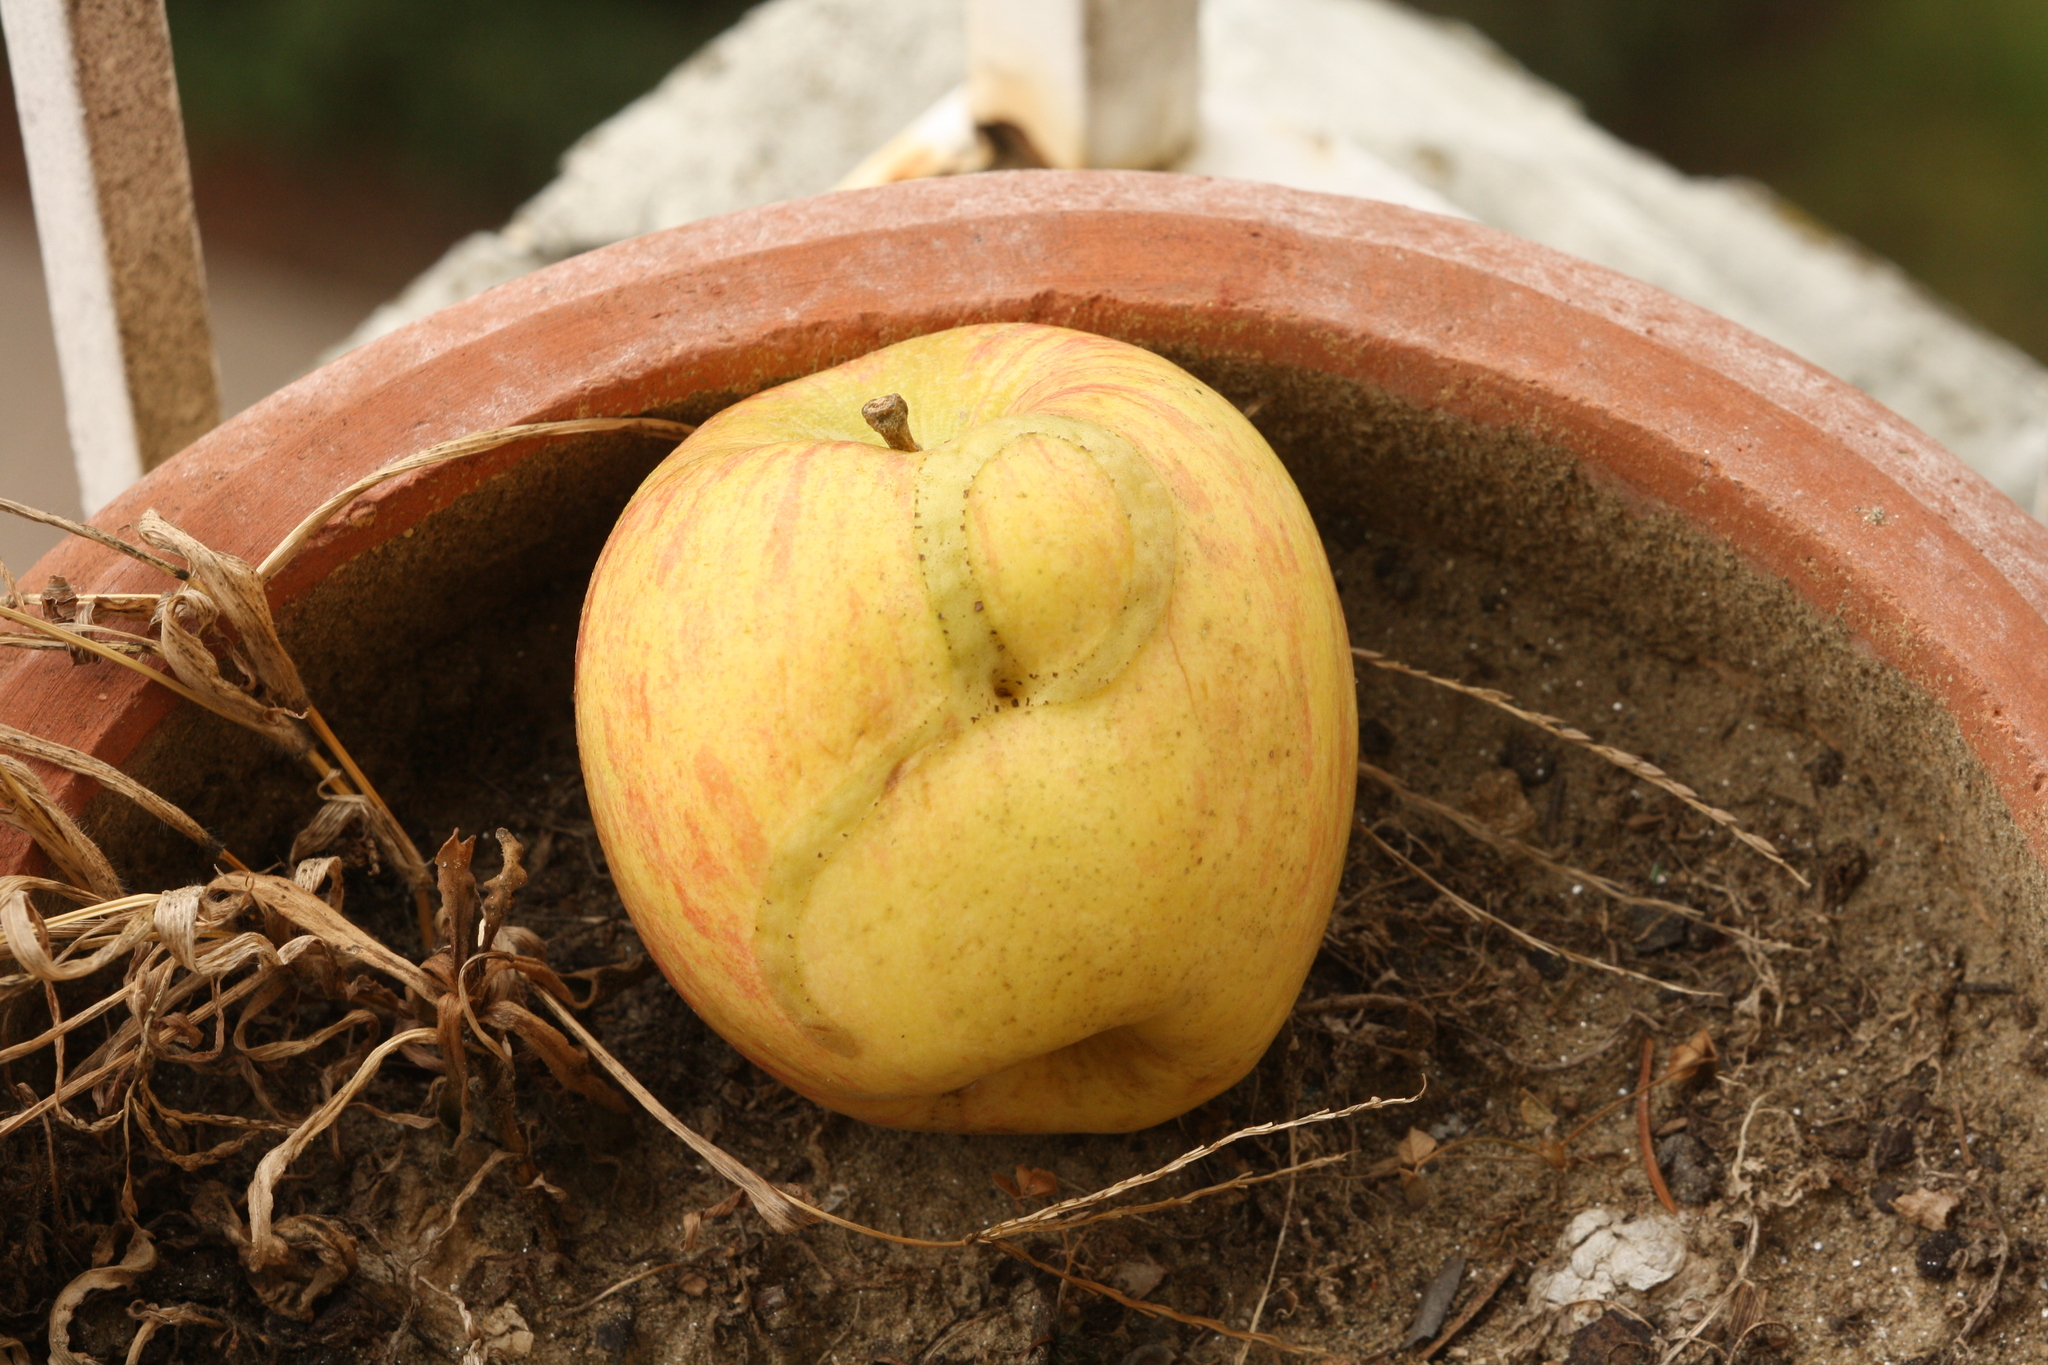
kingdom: Animalia
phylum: Arthropoda
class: Insecta
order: Hymenoptera
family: Tenthredinidae
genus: Hoplocampa
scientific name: Hoplocampa testudinea
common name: European apple sawfly
